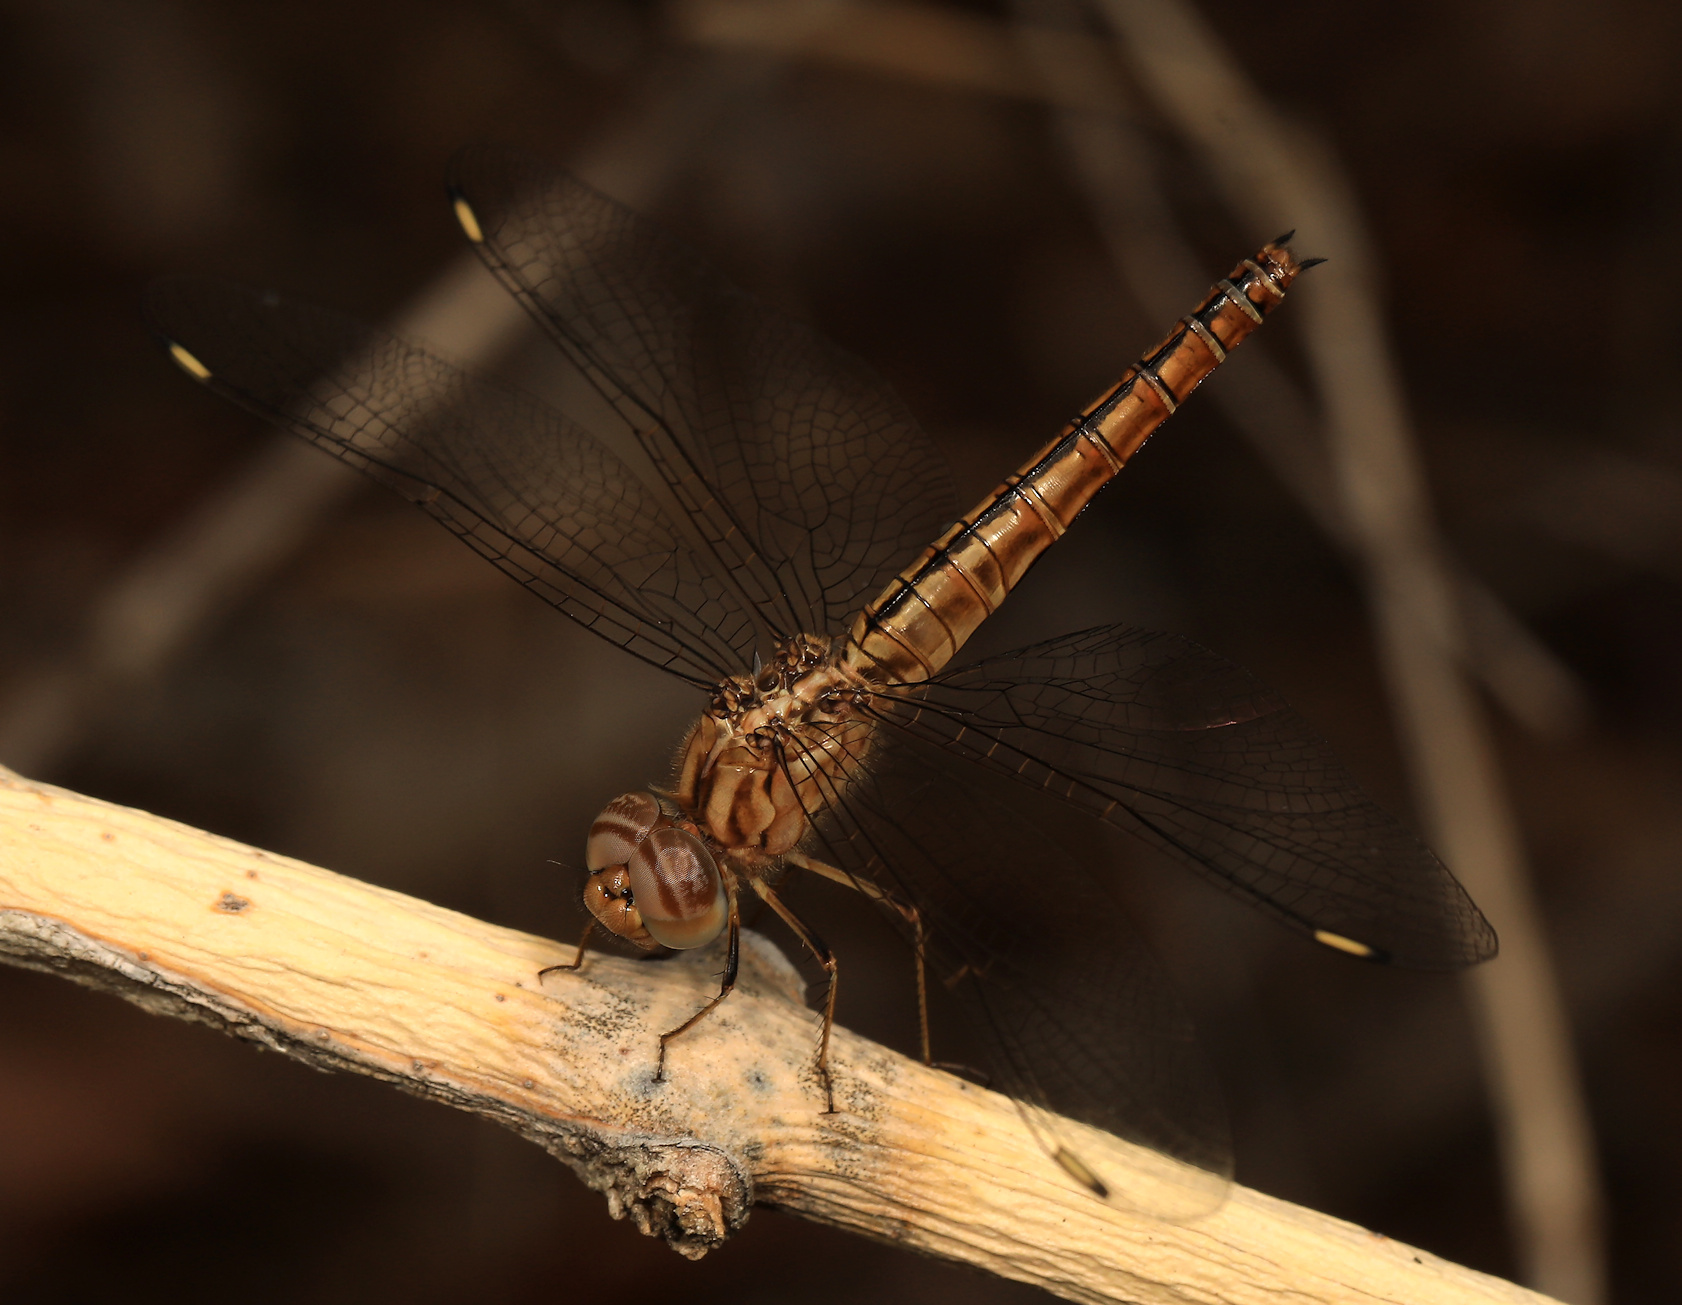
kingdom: Animalia
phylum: Arthropoda
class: Insecta
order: Odonata
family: Libellulidae
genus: Brachythemis
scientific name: Brachythemis lacustris
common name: Red groundling
